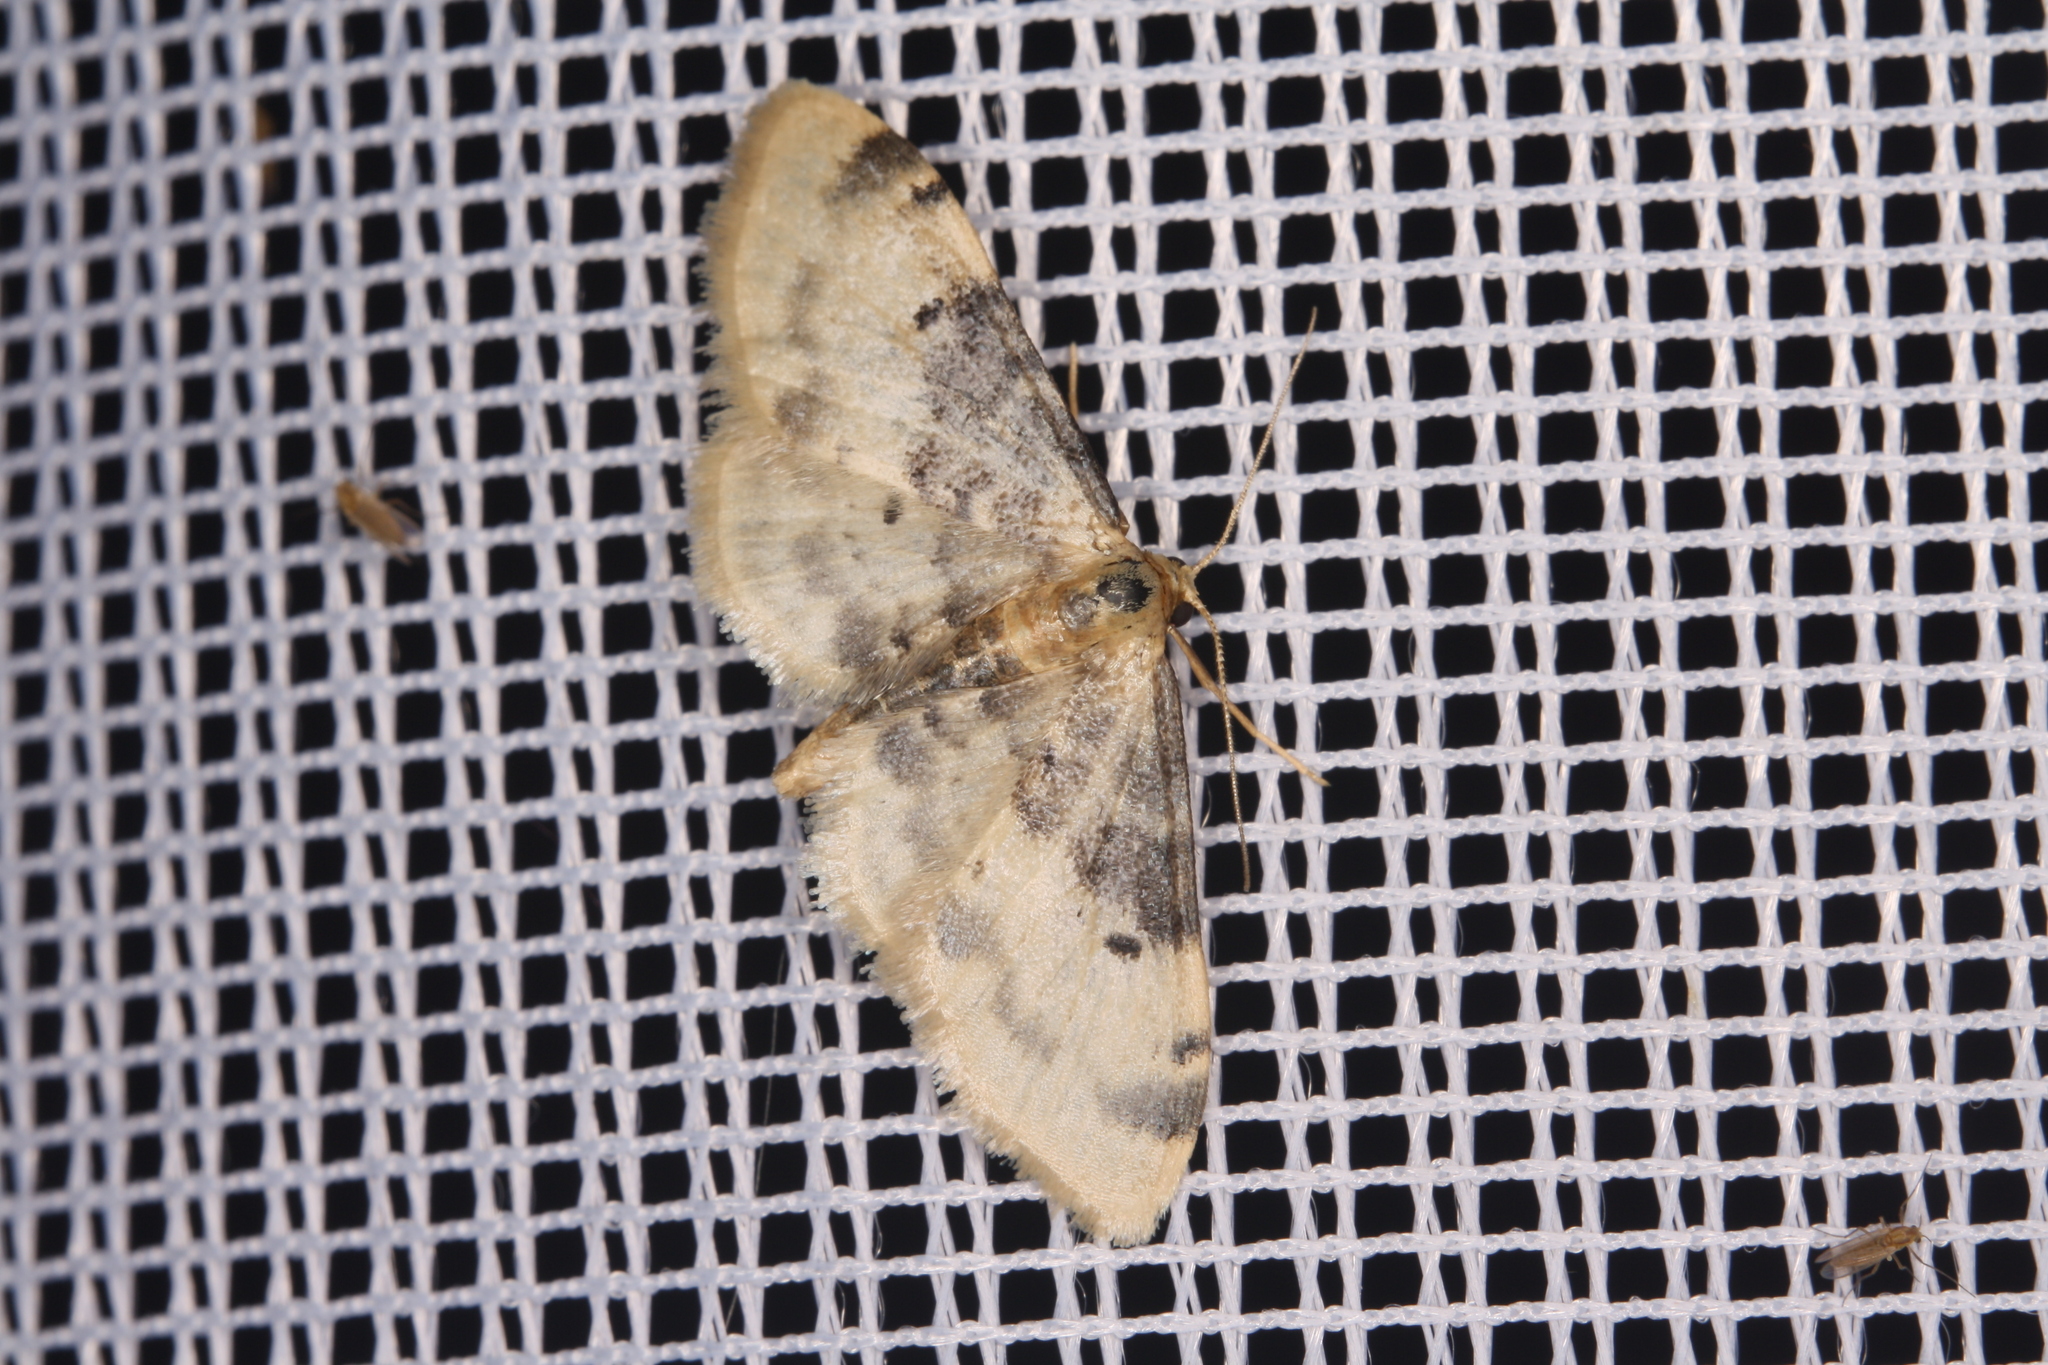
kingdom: Animalia
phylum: Arthropoda
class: Insecta
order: Lepidoptera
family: Geometridae
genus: Idaea
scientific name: Idaea filicata
